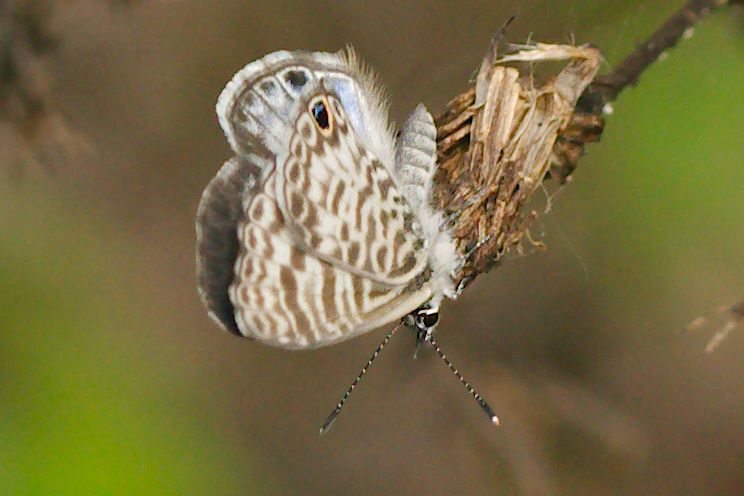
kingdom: Animalia
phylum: Arthropoda
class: Insecta
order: Lepidoptera
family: Lycaenidae
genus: Leptotes
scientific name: Leptotes cassius
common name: Cassius blue
